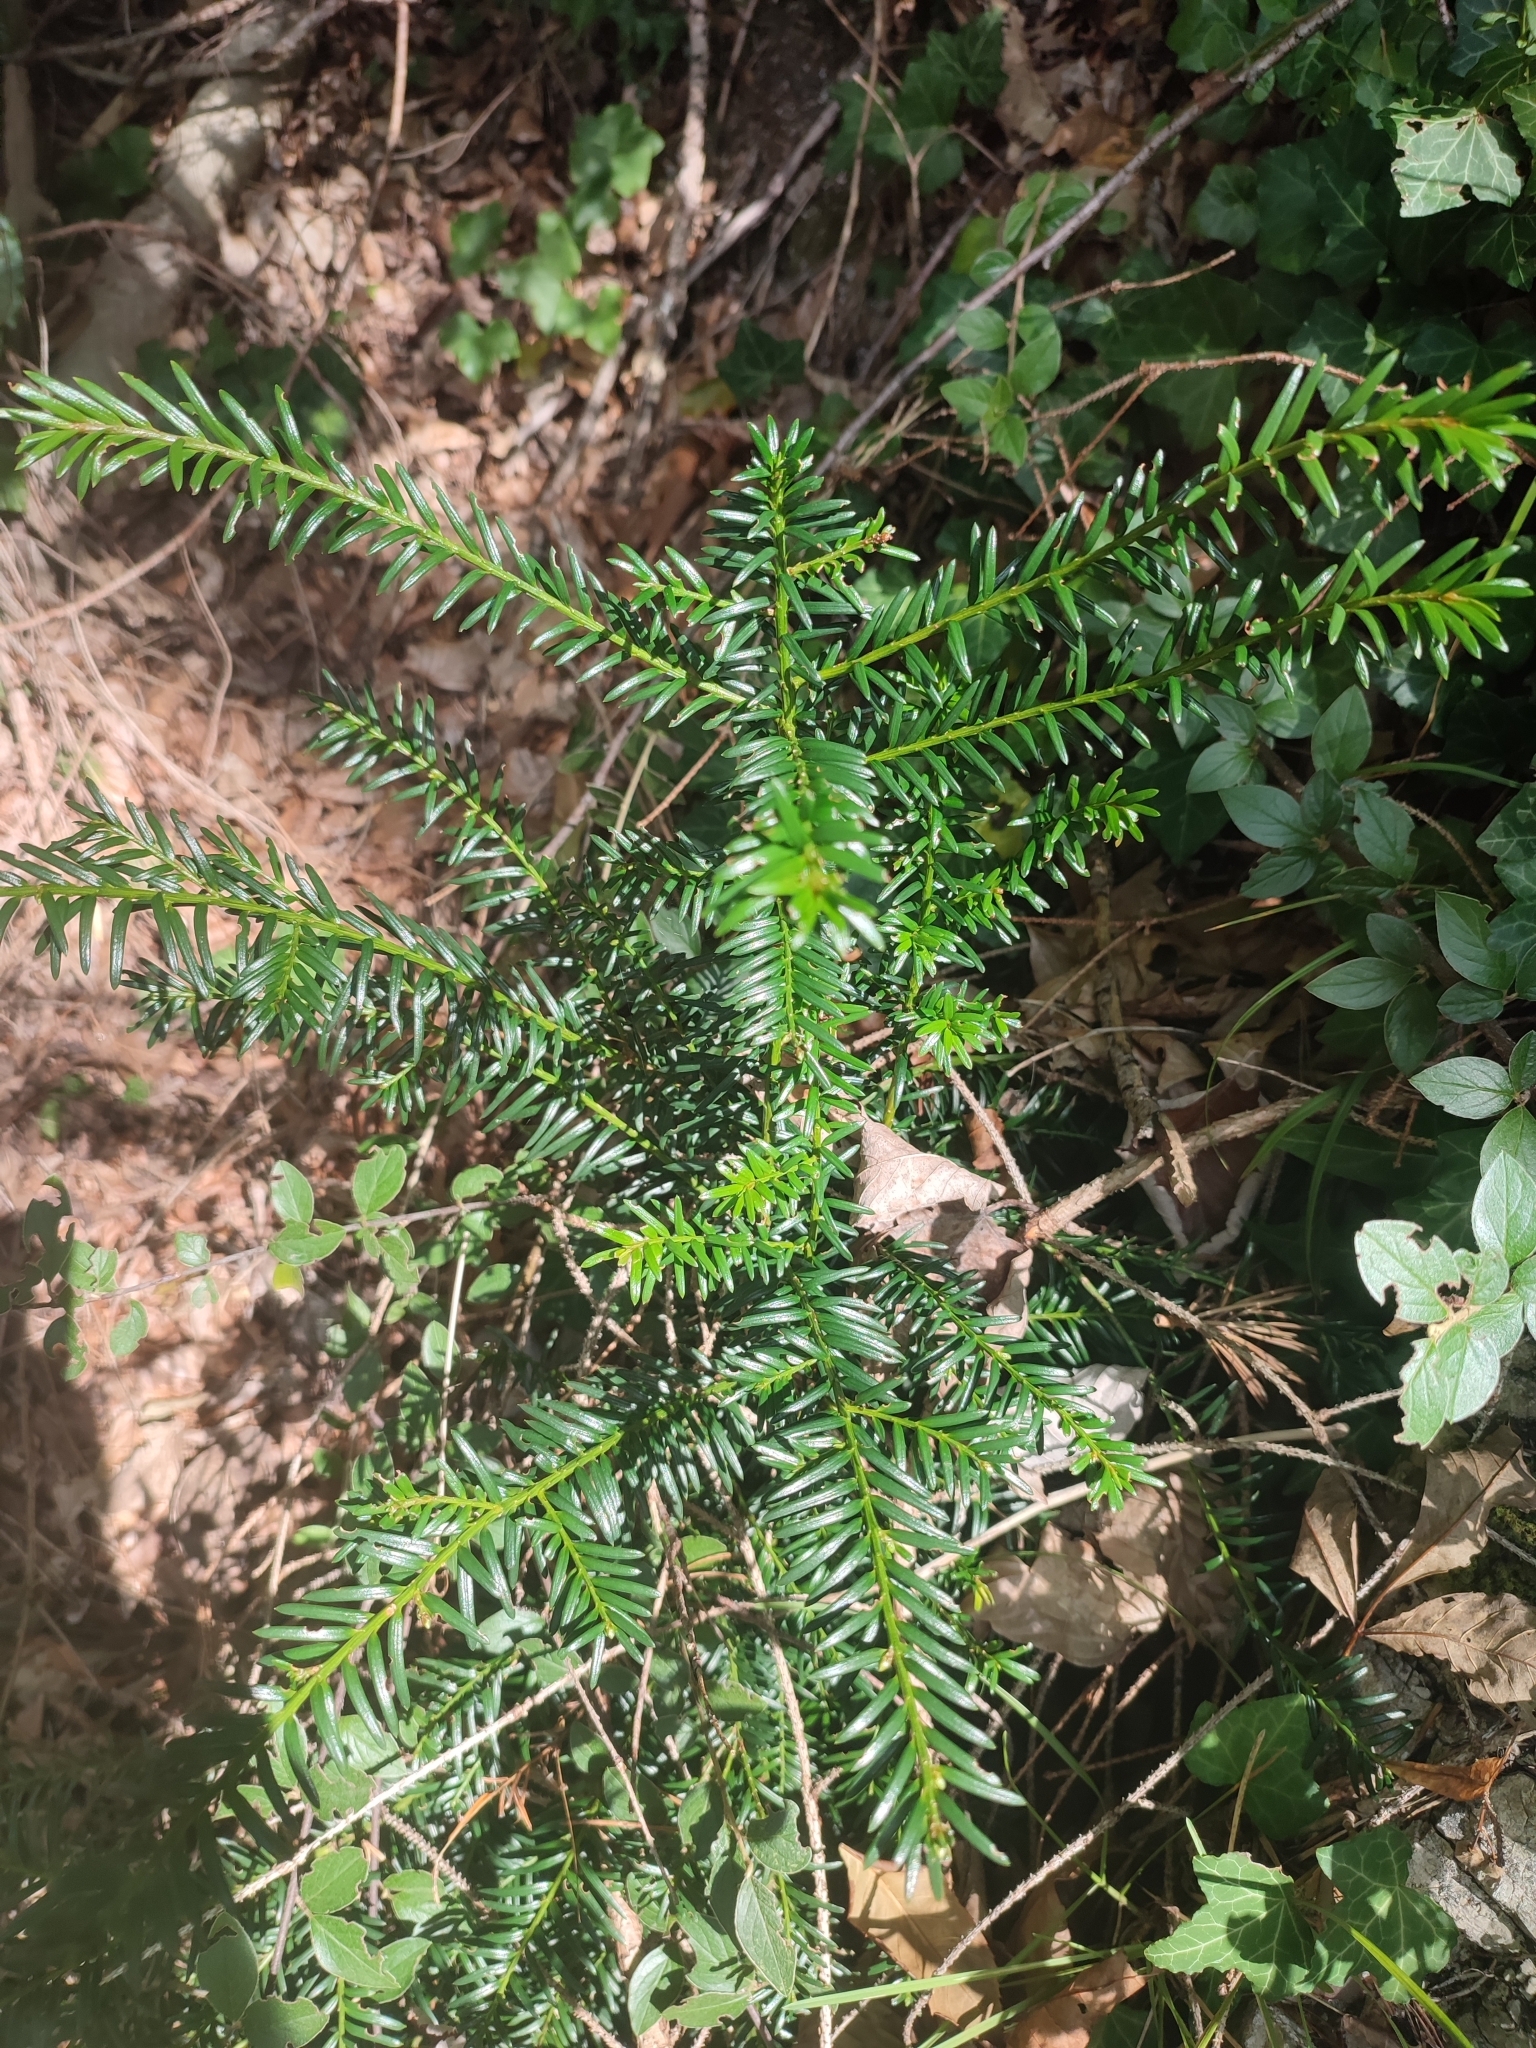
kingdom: Plantae
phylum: Tracheophyta
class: Pinopsida
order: Pinales
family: Taxaceae
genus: Taxus
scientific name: Taxus baccata
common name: Yew
